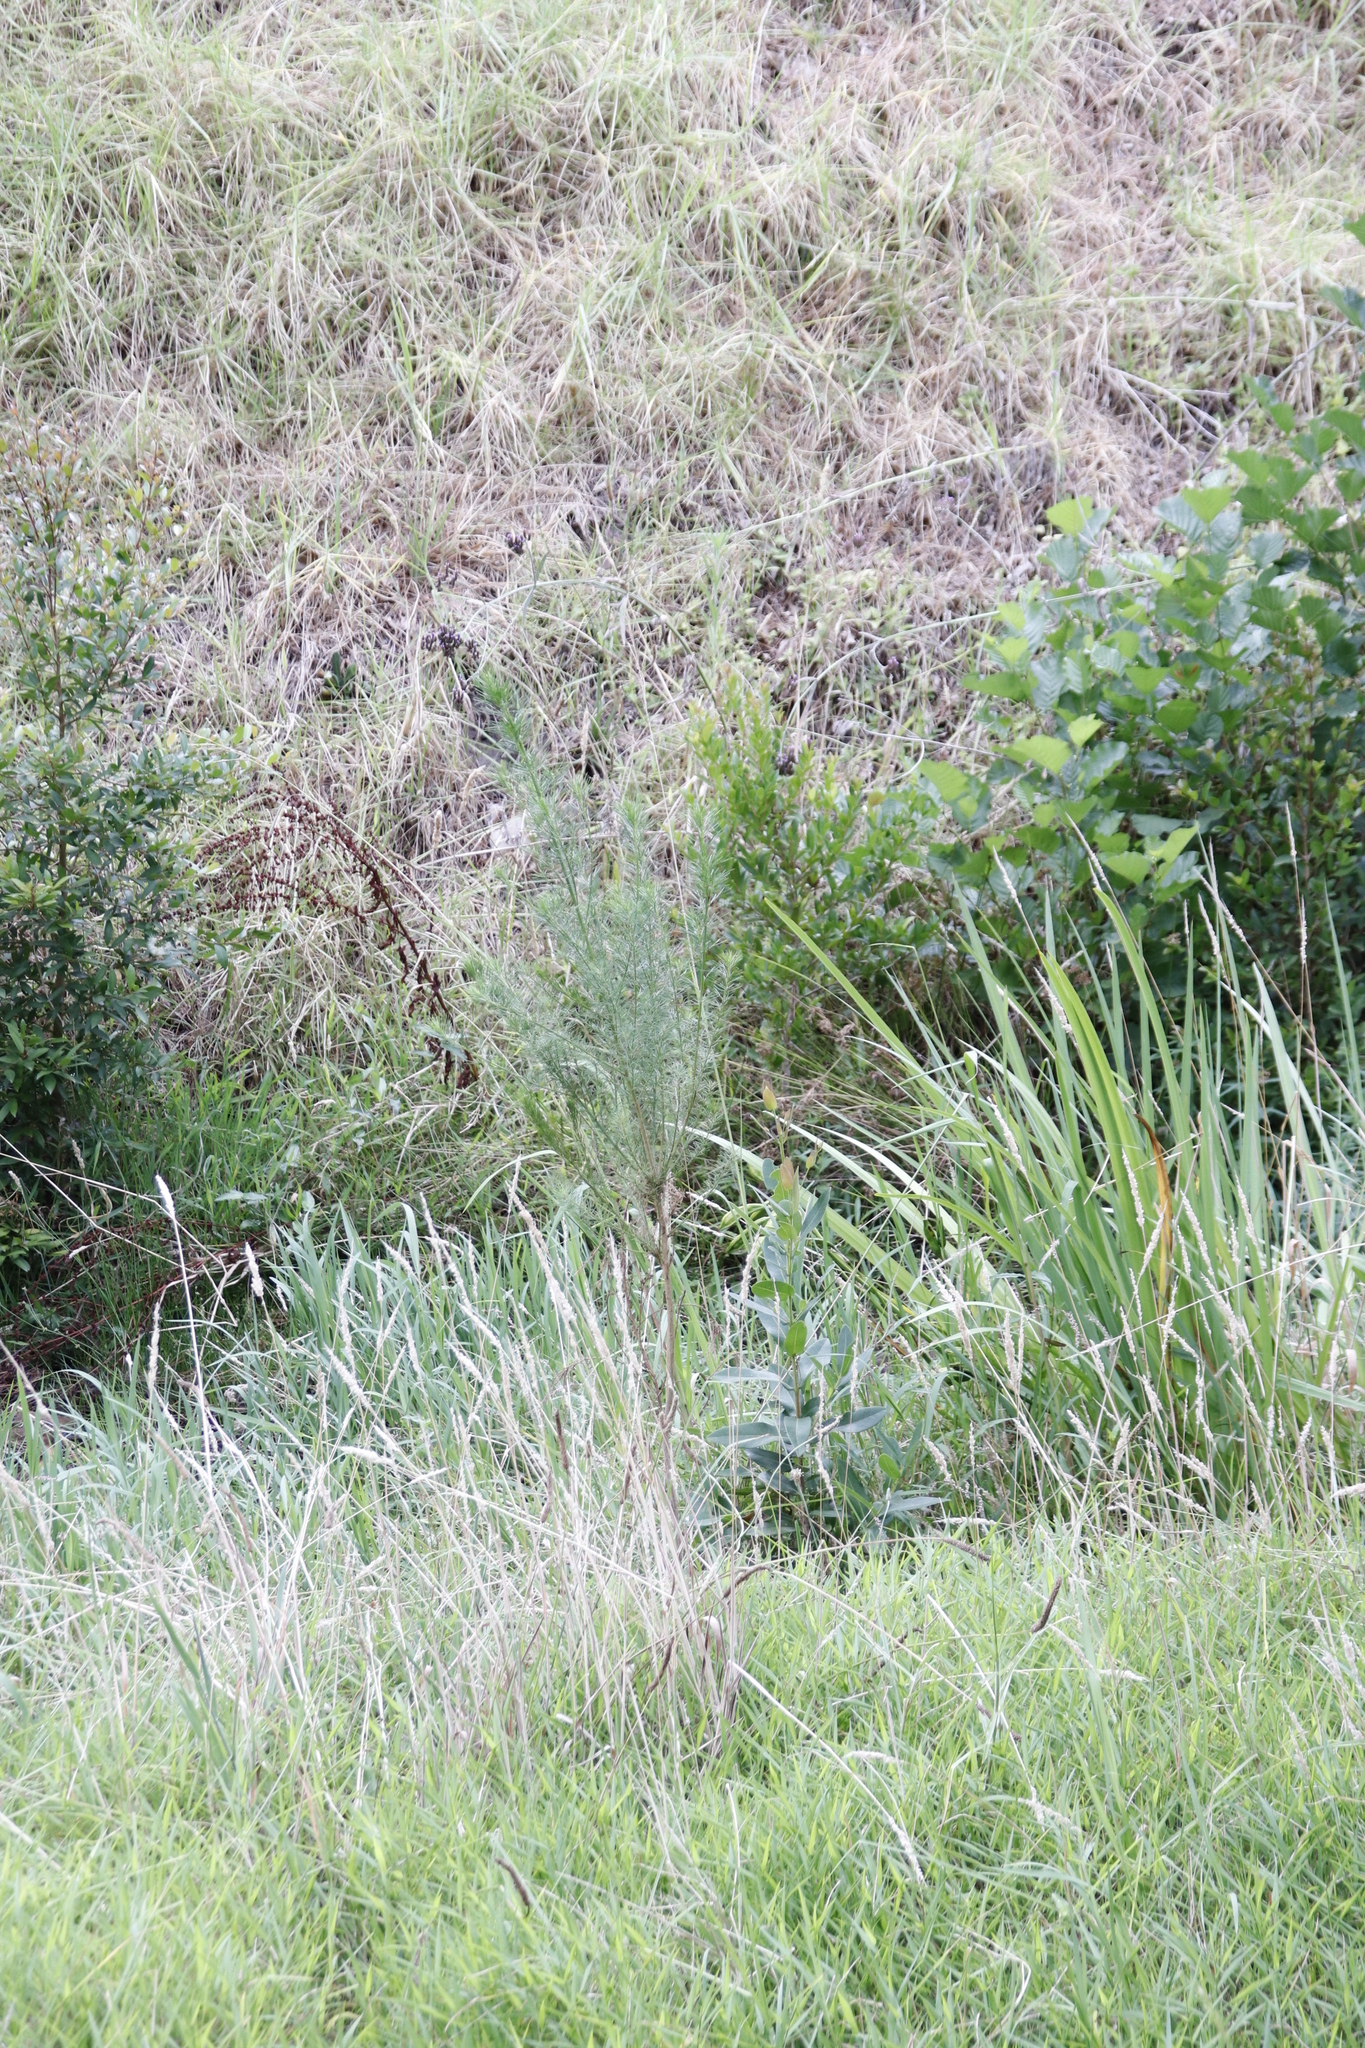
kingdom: Plantae
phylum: Tracheophyta
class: Magnoliopsida
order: Fabales
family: Fabaceae
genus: Psoralea
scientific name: Psoralea pinnata
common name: African scurfpea
